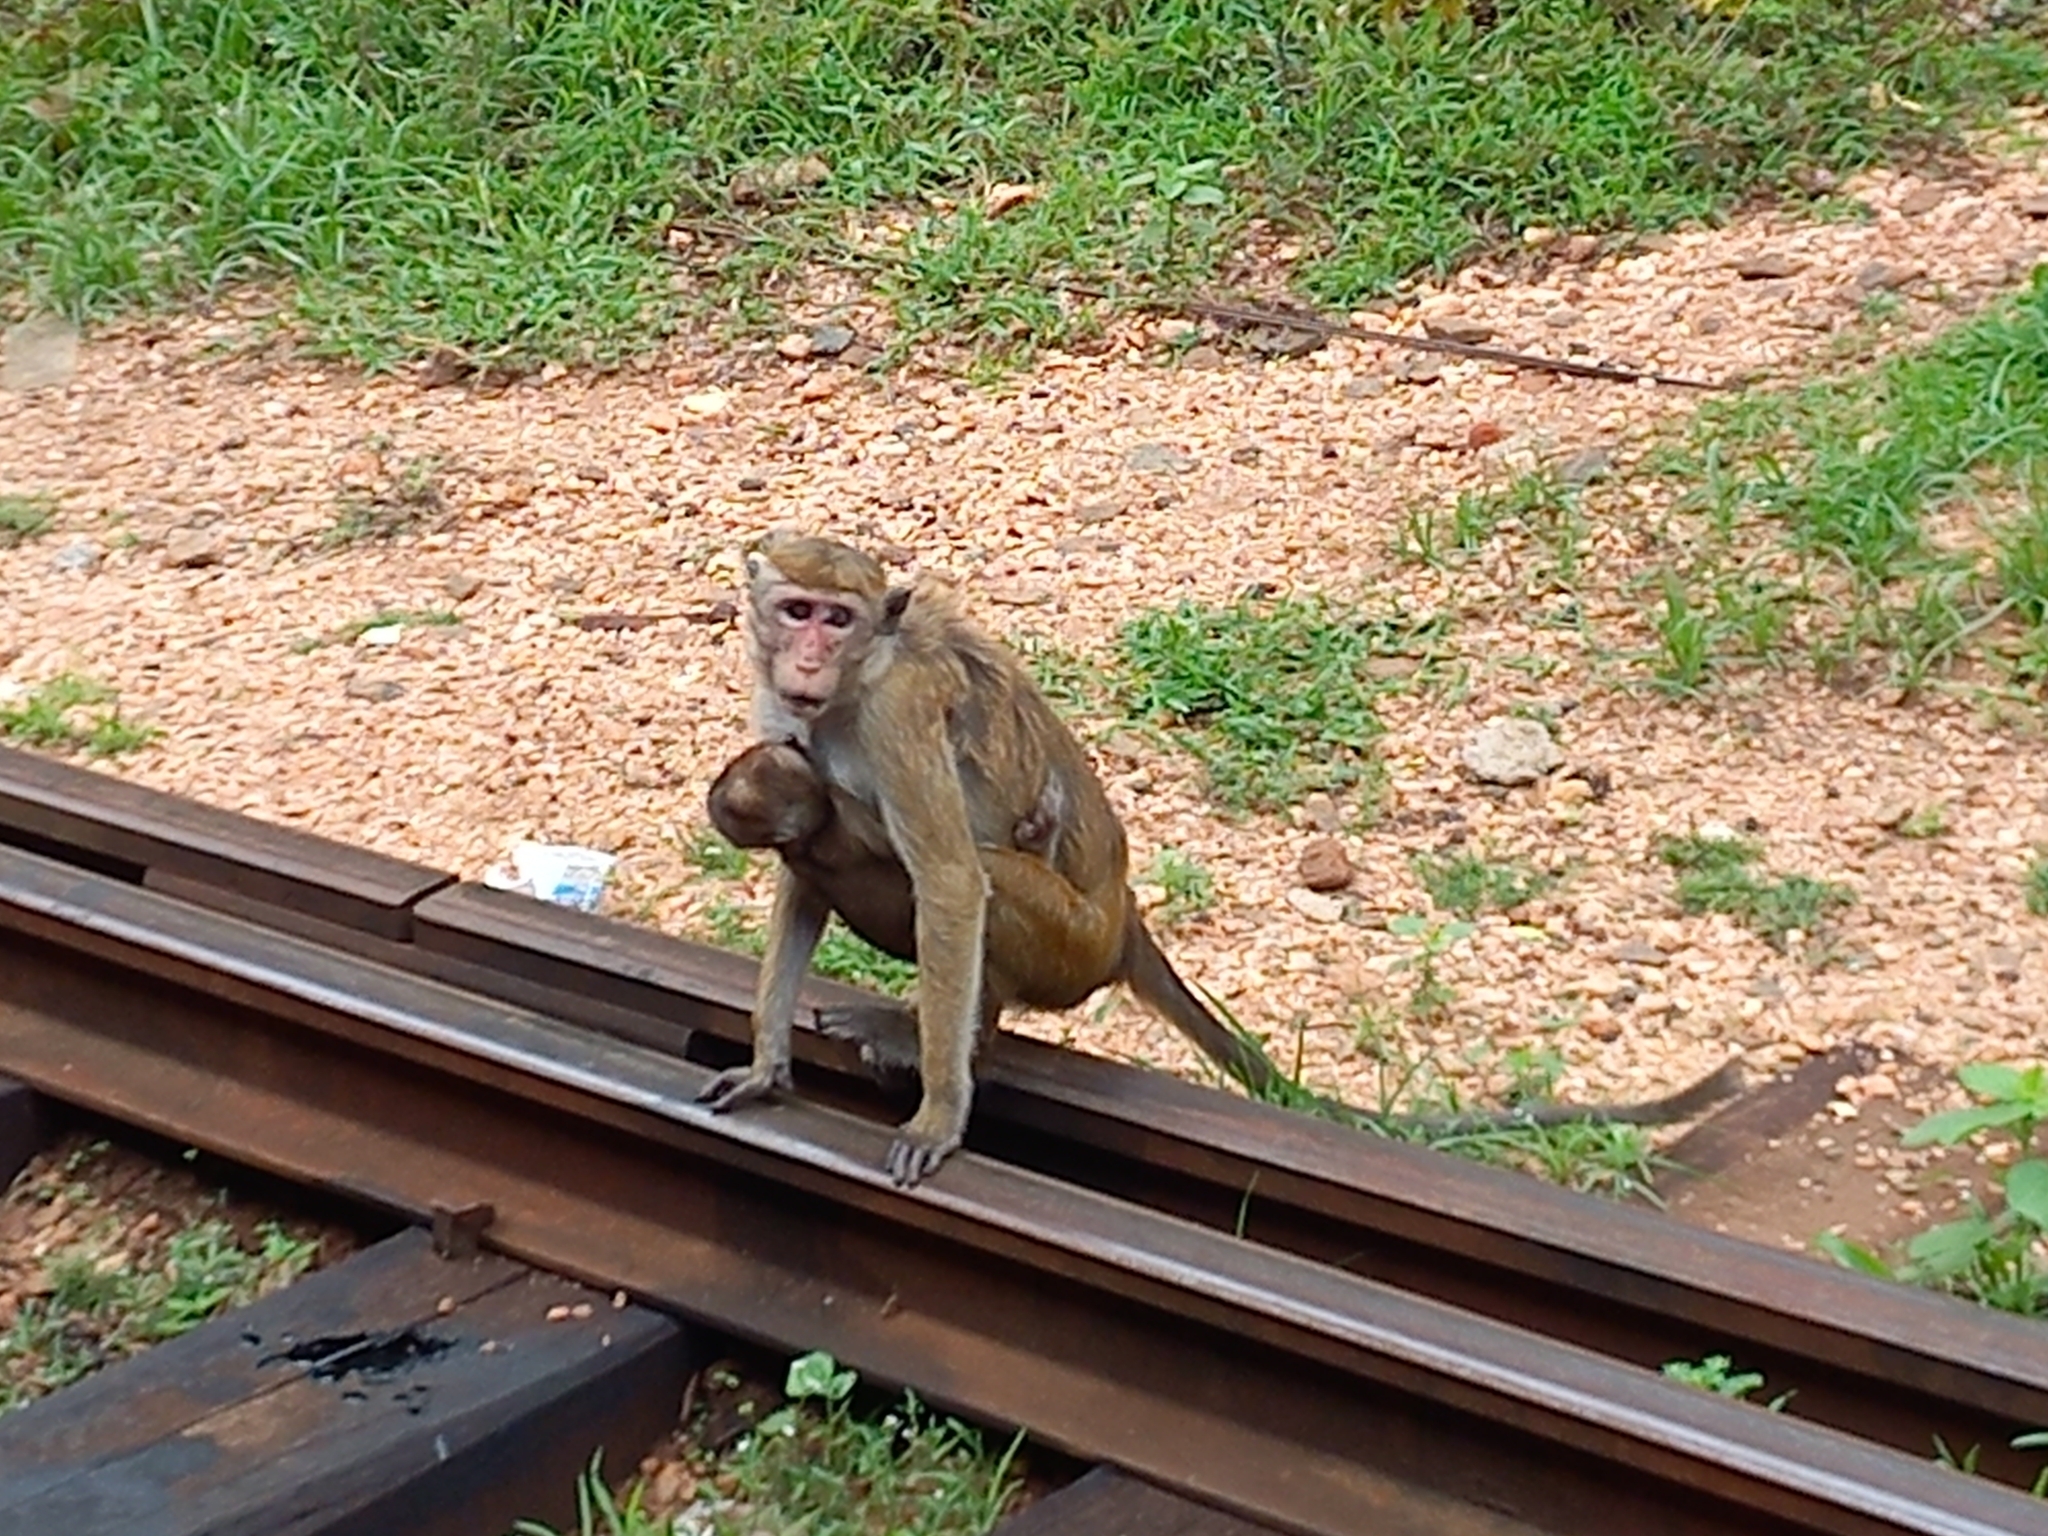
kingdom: Animalia
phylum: Chordata
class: Mammalia
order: Primates
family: Cercopithecidae
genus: Macaca
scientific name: Macaca sinica
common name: Toque macaque
